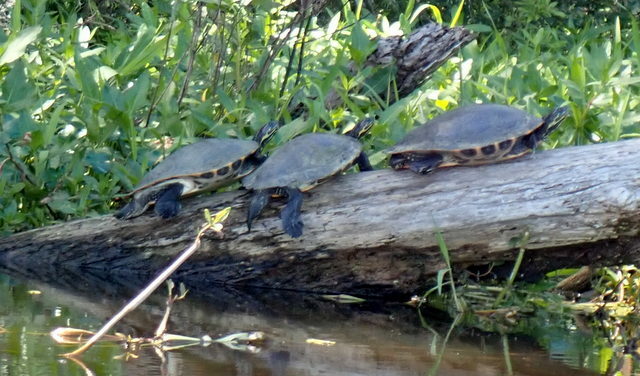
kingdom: Animalia
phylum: Chordata
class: Testudines
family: Emydidae
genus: Pseudemys
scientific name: Pseudemys concinna
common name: Eastern river cooter
